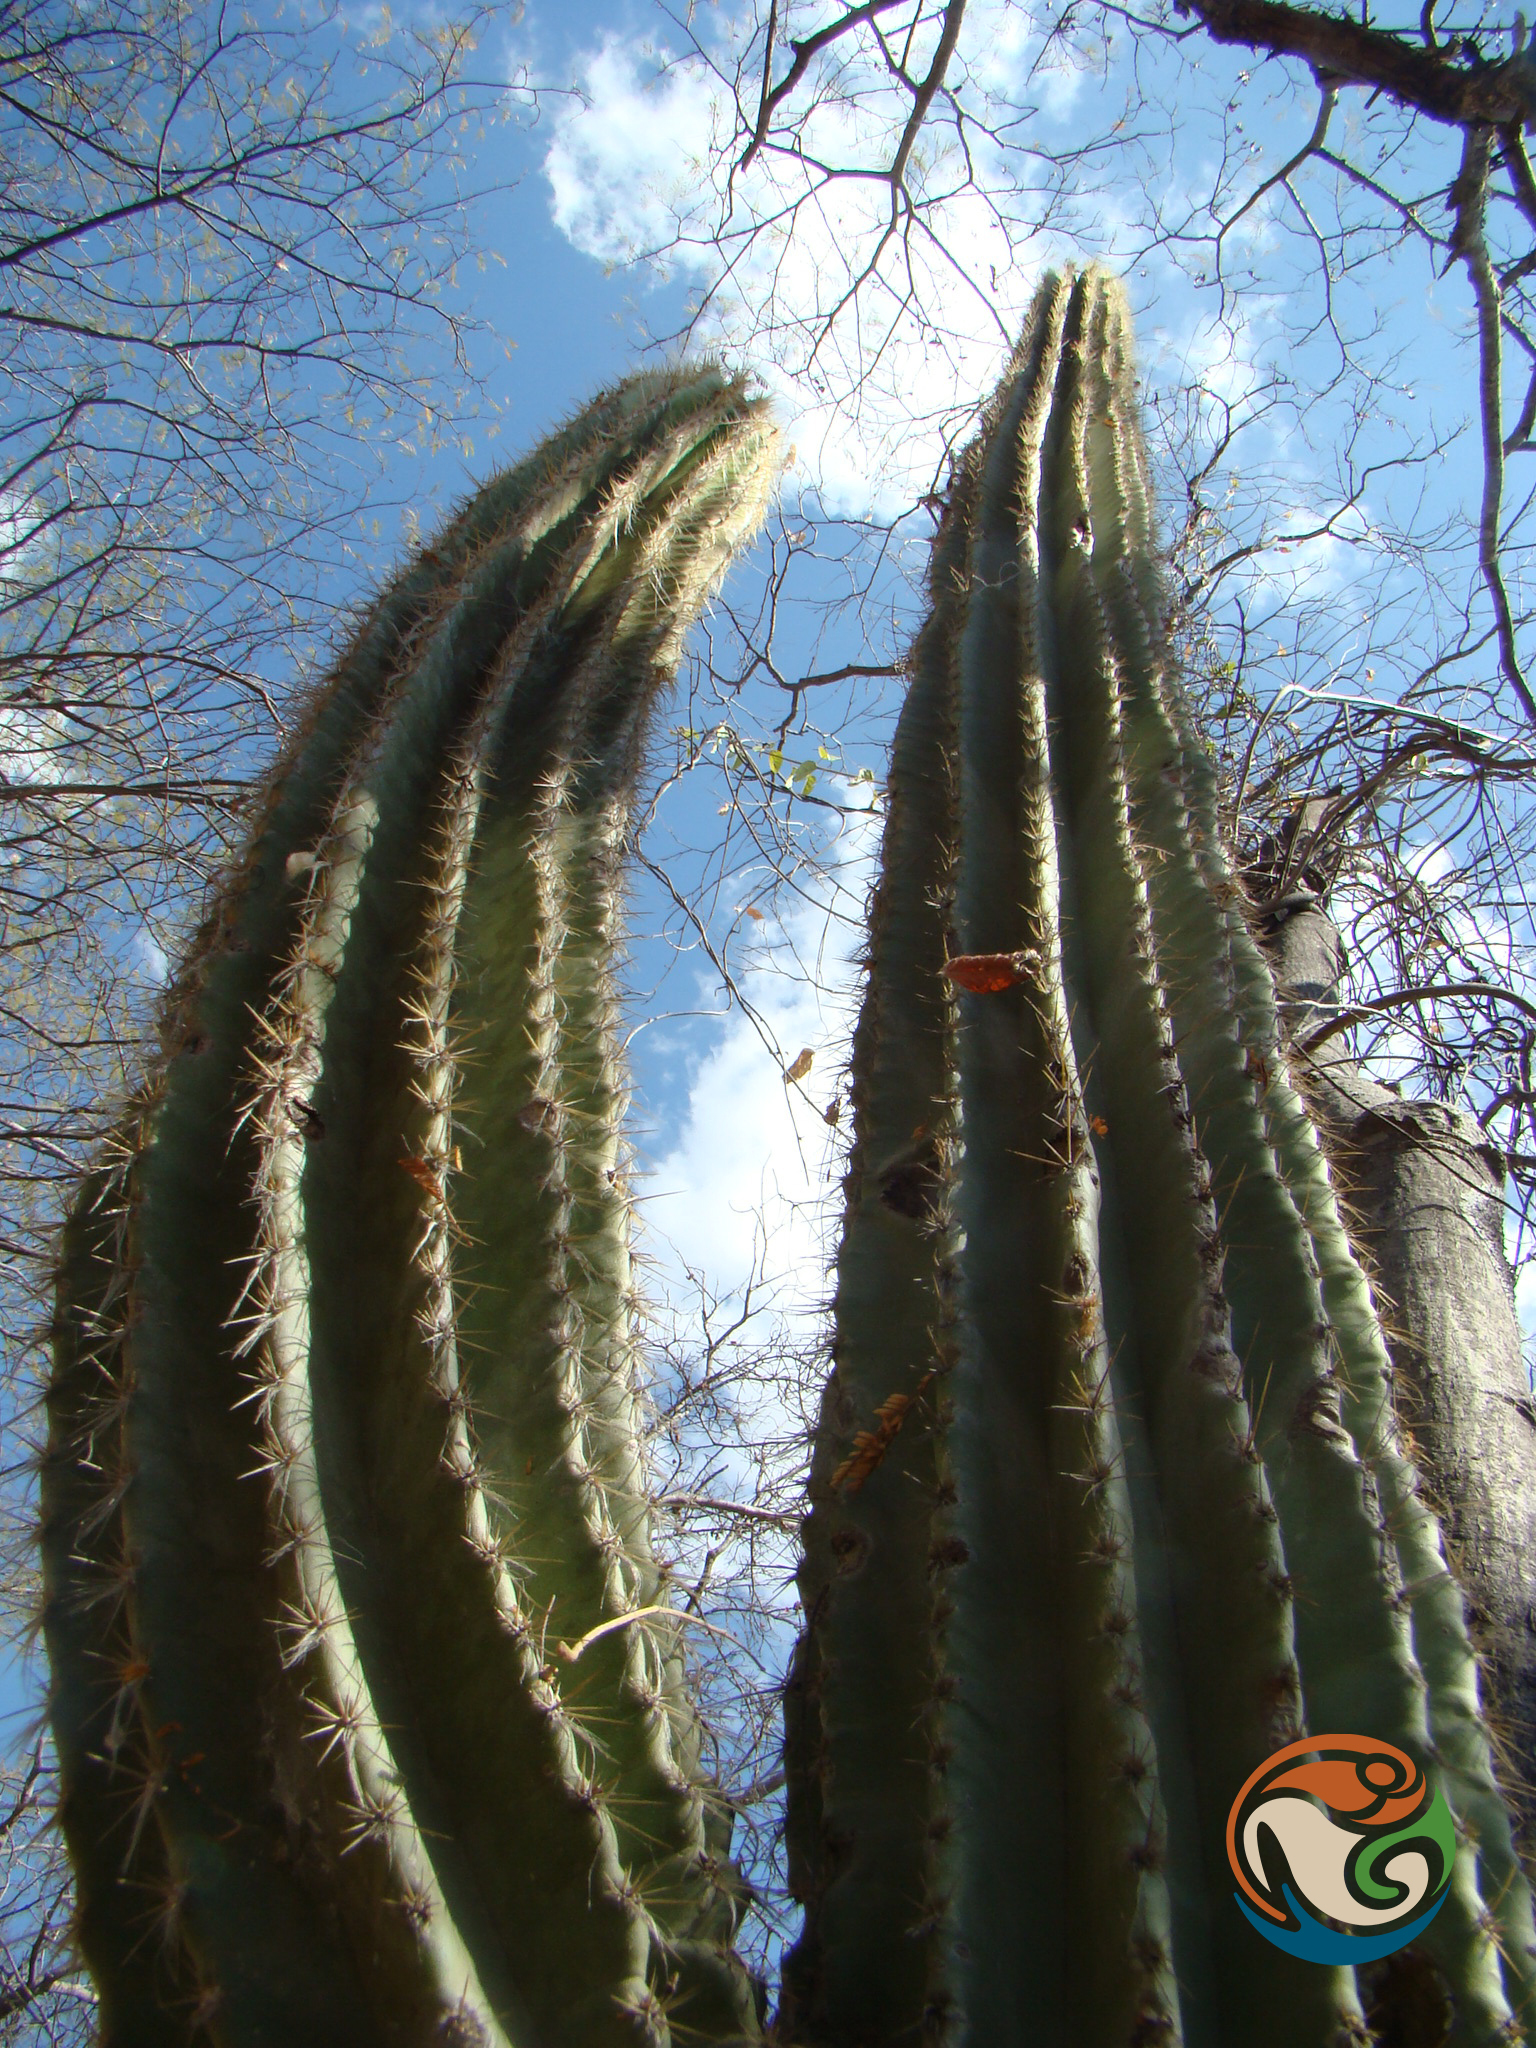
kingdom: Plantae
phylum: Tracheophyta
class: Magnoliopsida
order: Caryophyllales
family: Cactaceae
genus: Stenocereus
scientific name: Stenocereus stellatus
